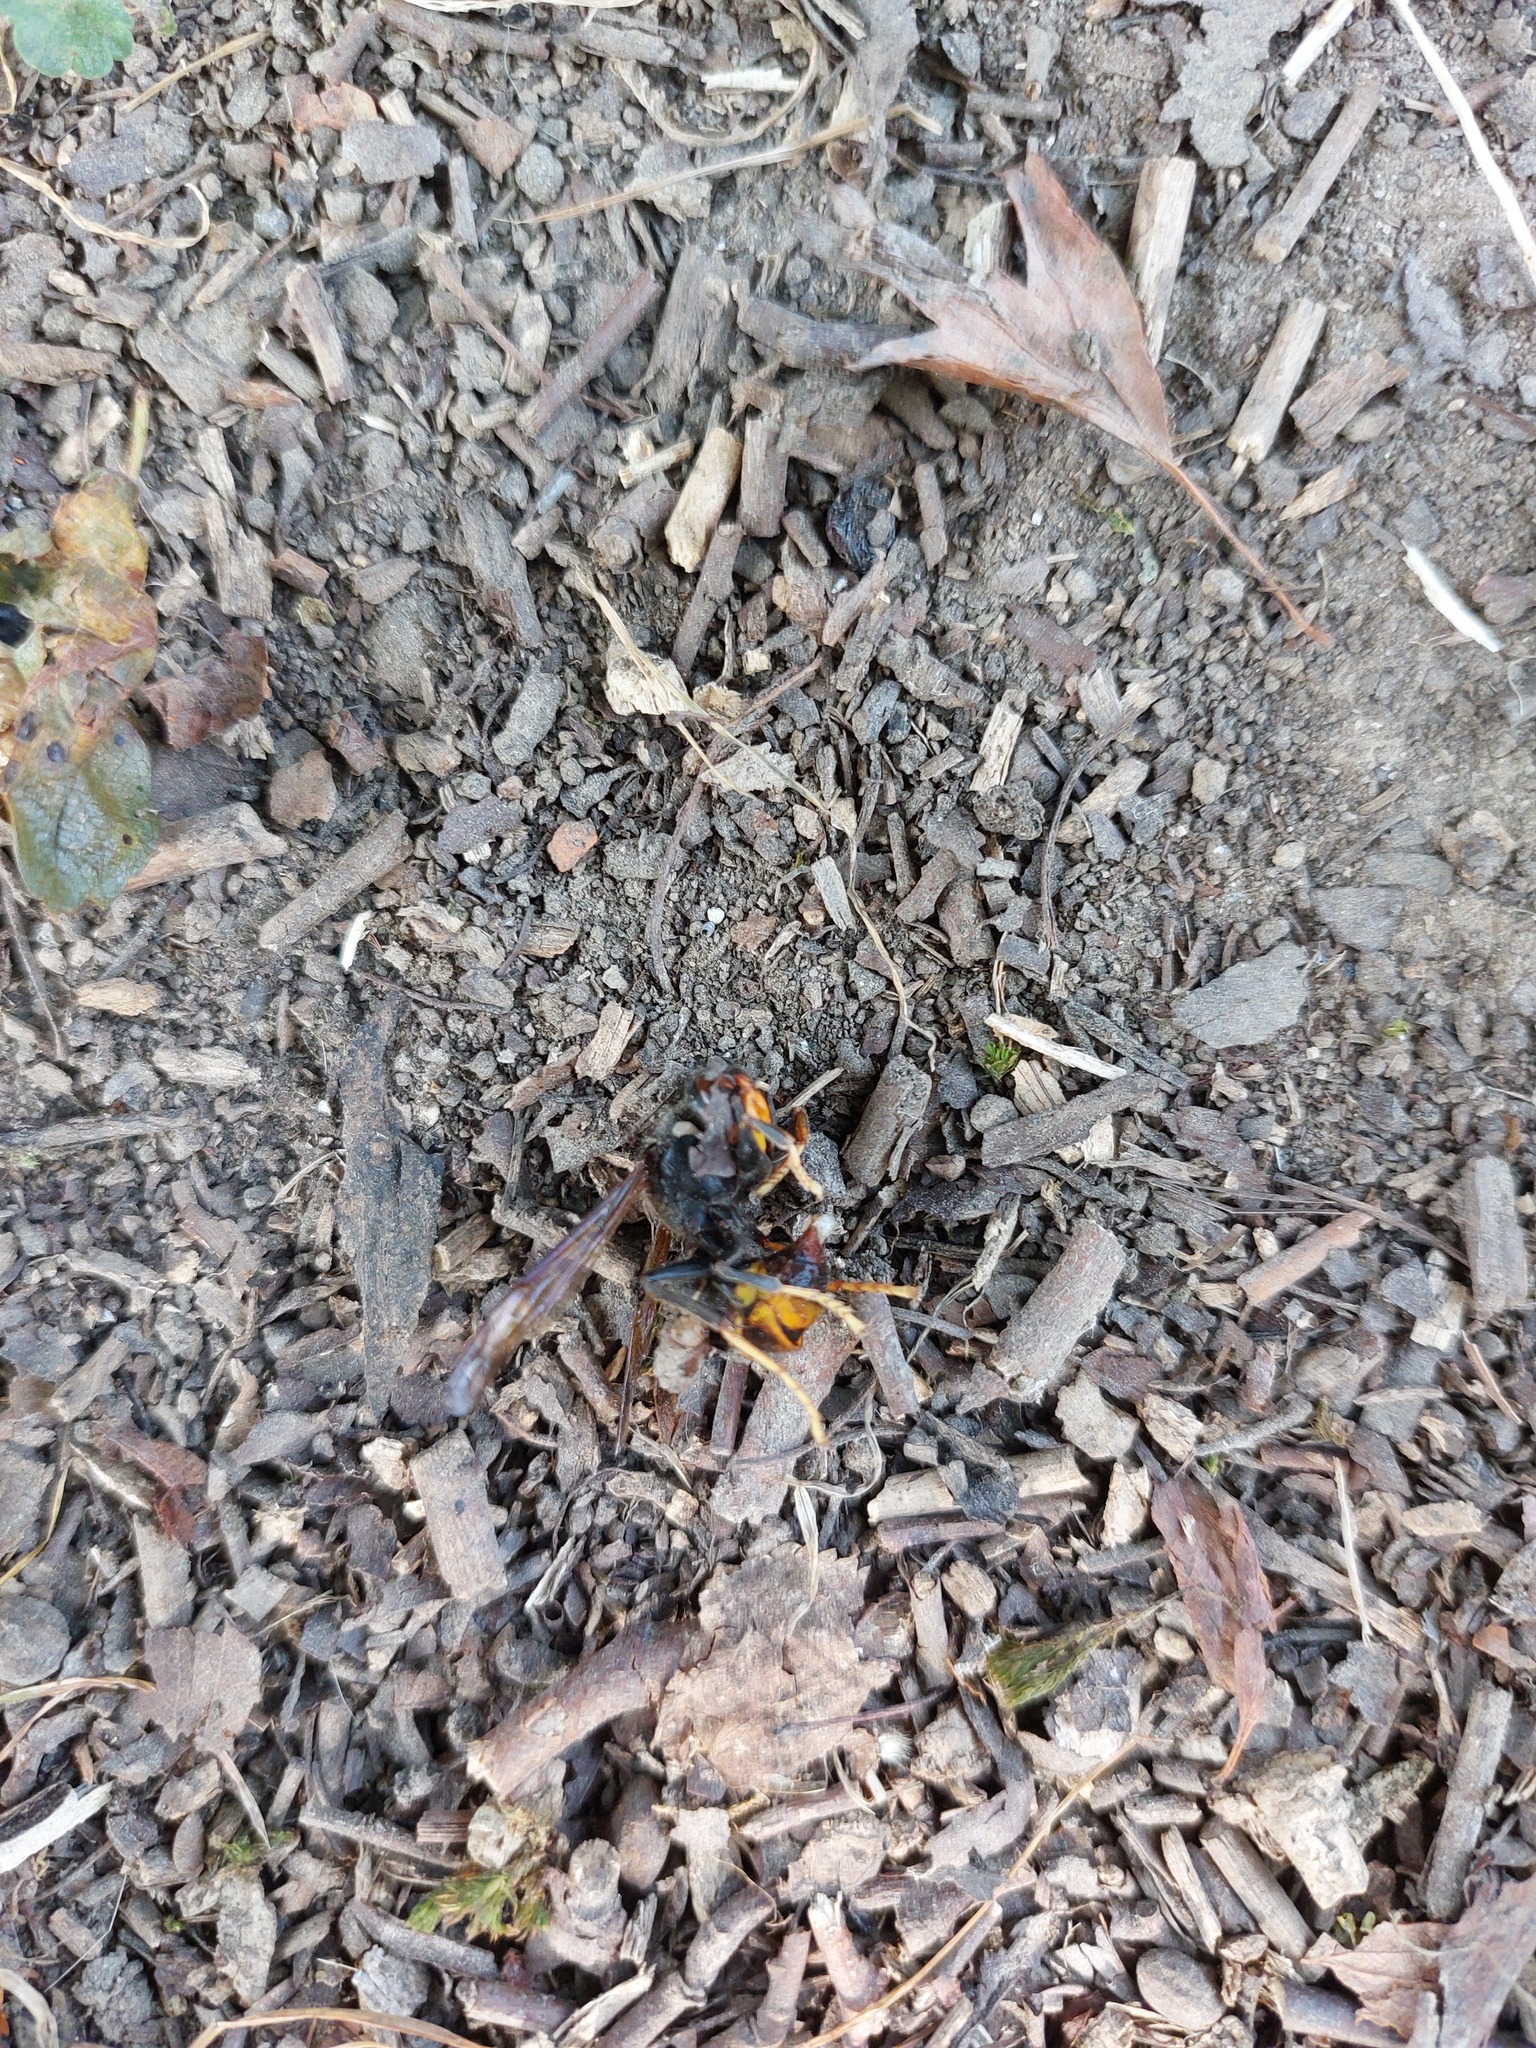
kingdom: Animalia
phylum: Arthropoda
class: Insecta
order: Hymenoptera
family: Vespidae
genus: Vespa
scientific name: Vespa velutina
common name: Asian hornet
